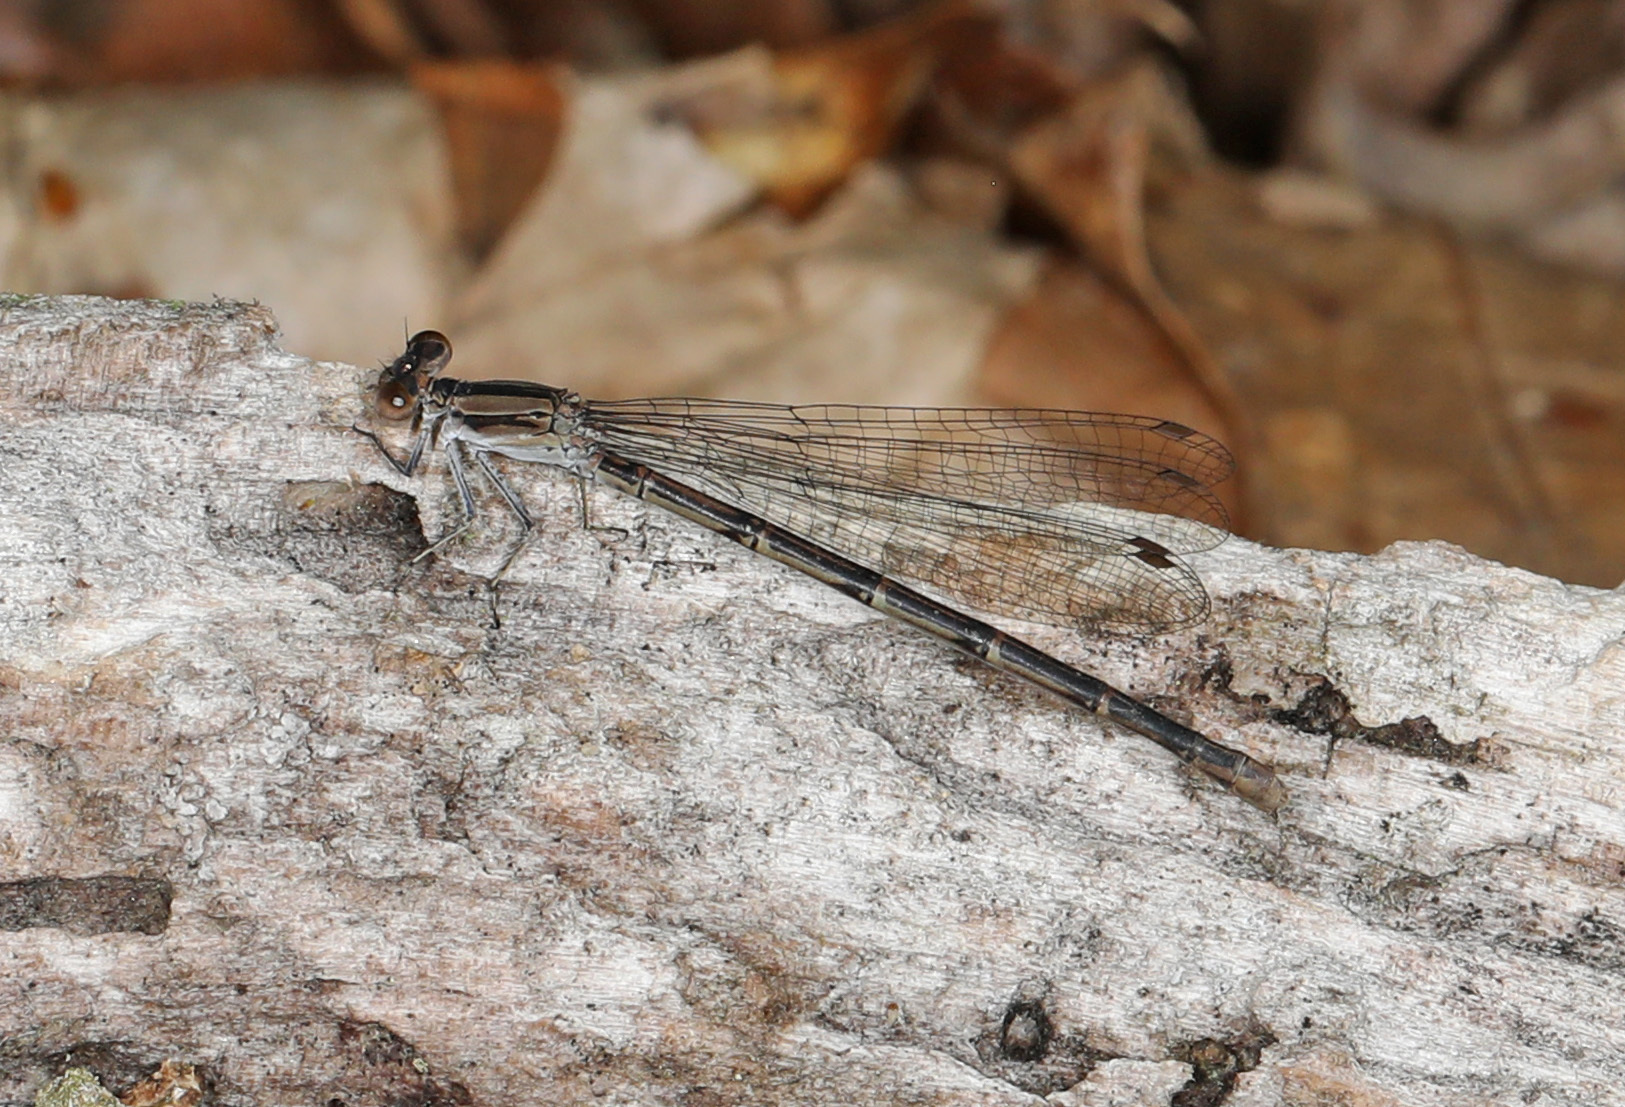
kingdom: Animalia
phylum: Arthropoda
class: Insecta
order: Odonata
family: Coenagrionidae
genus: Argia
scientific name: Argia fumipennis
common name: Variable dancer
